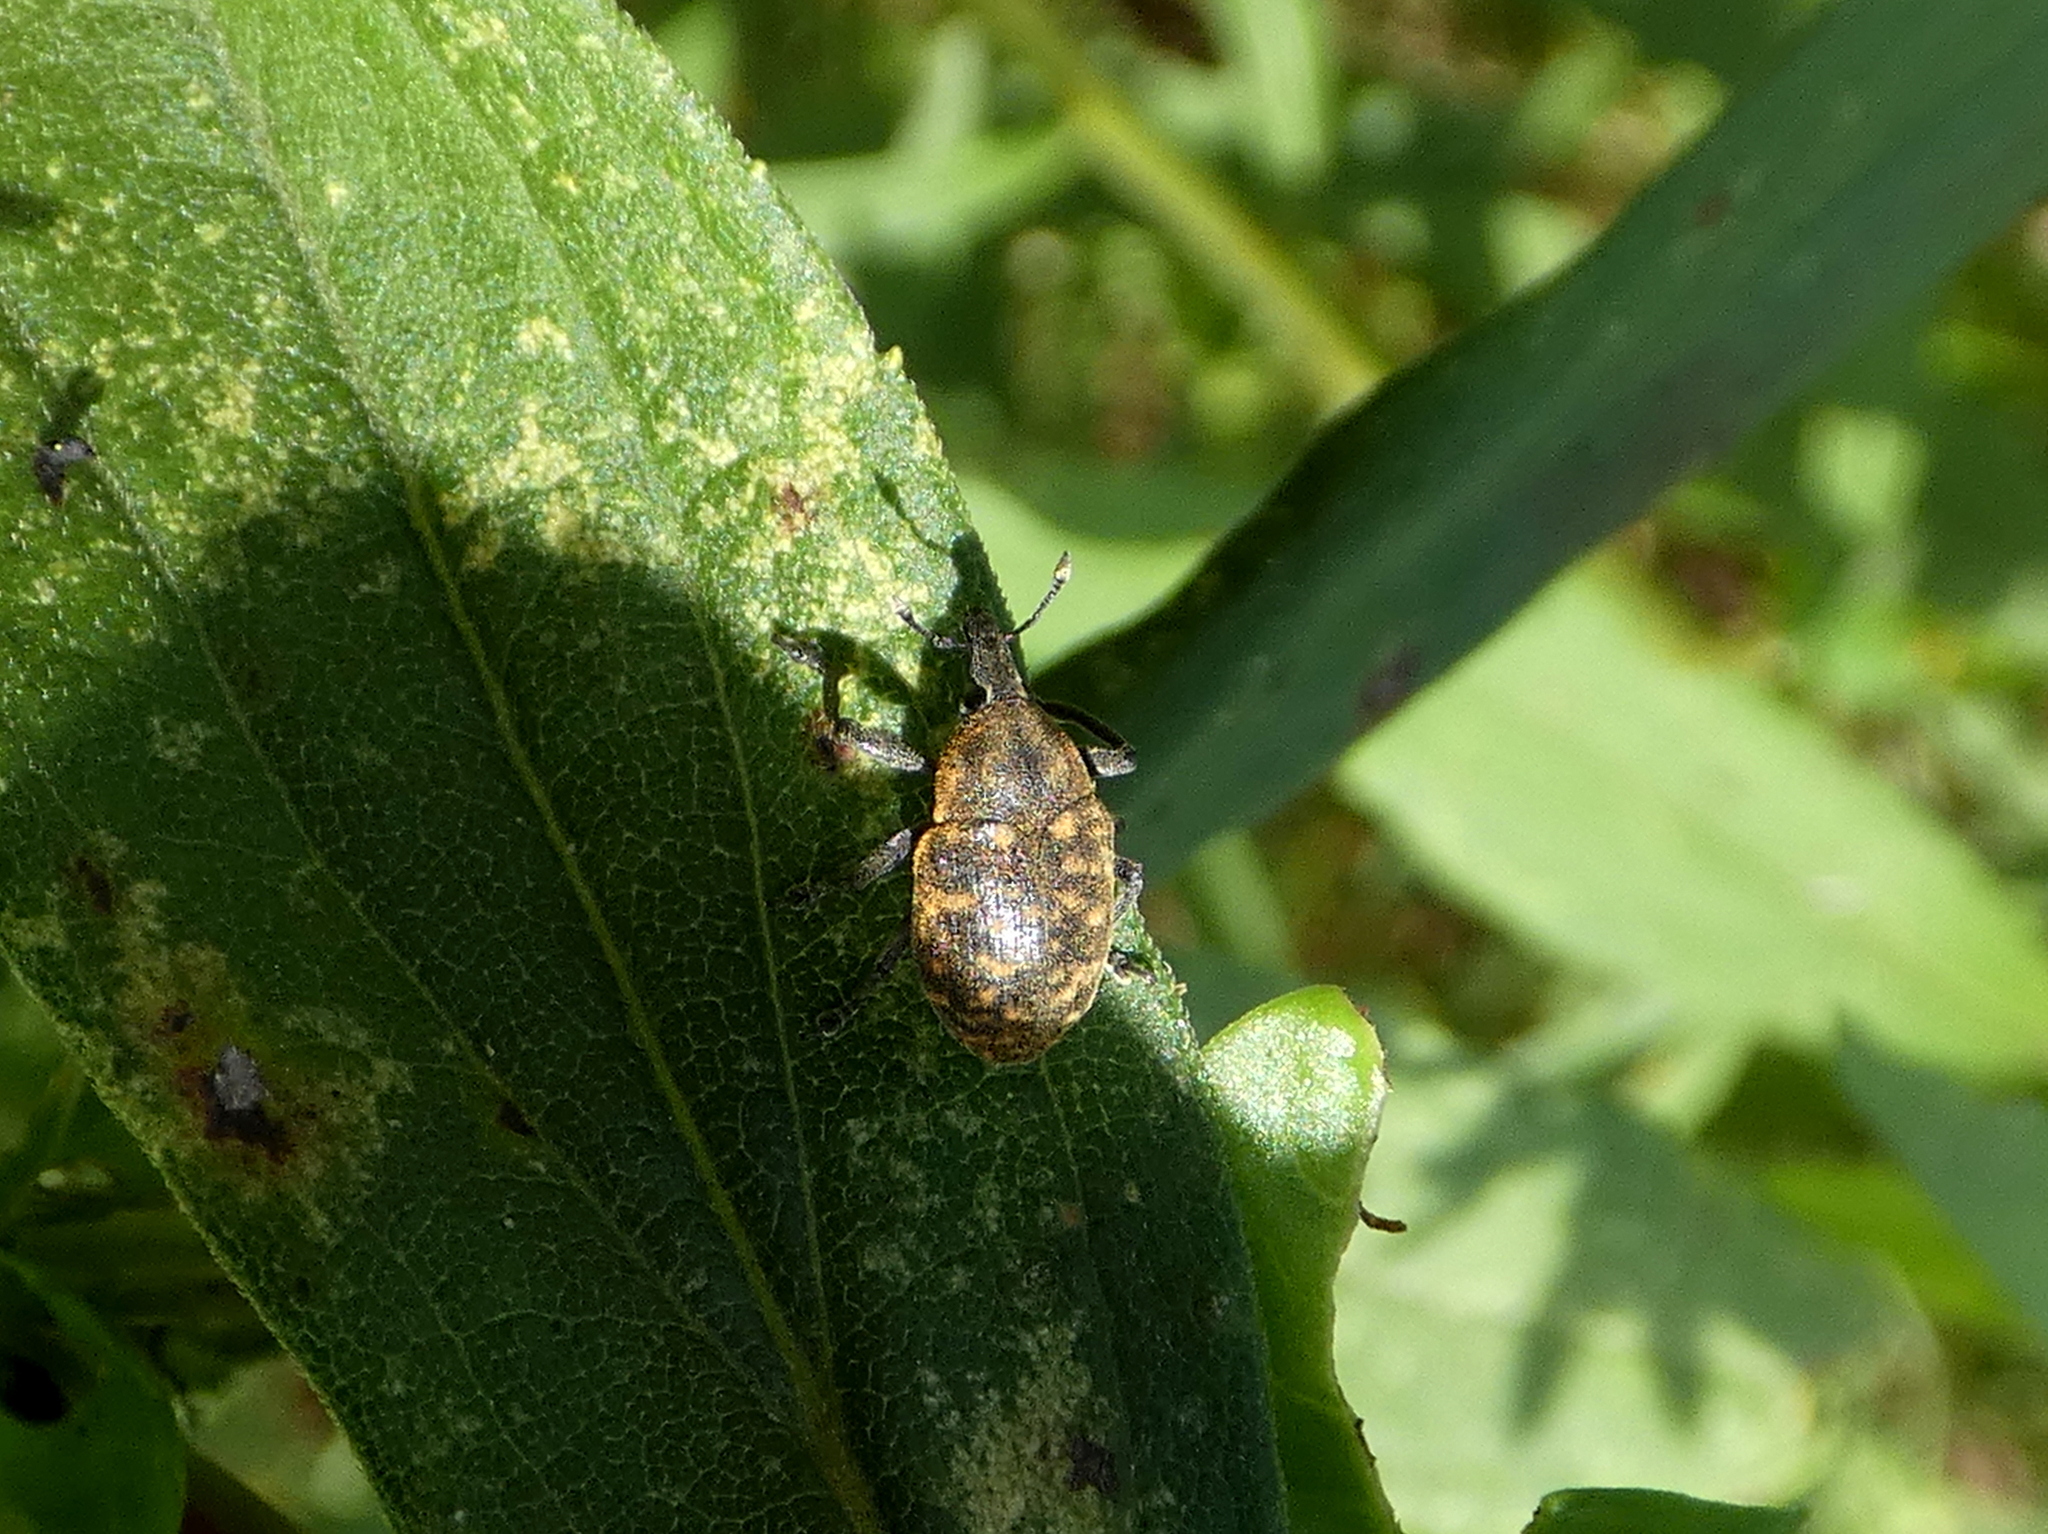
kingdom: Animalia
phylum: Arthropoda
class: Insecta
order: Coleoptera
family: Curculionidae
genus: Larinus
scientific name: Larinus turbinatus
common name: Weevil
